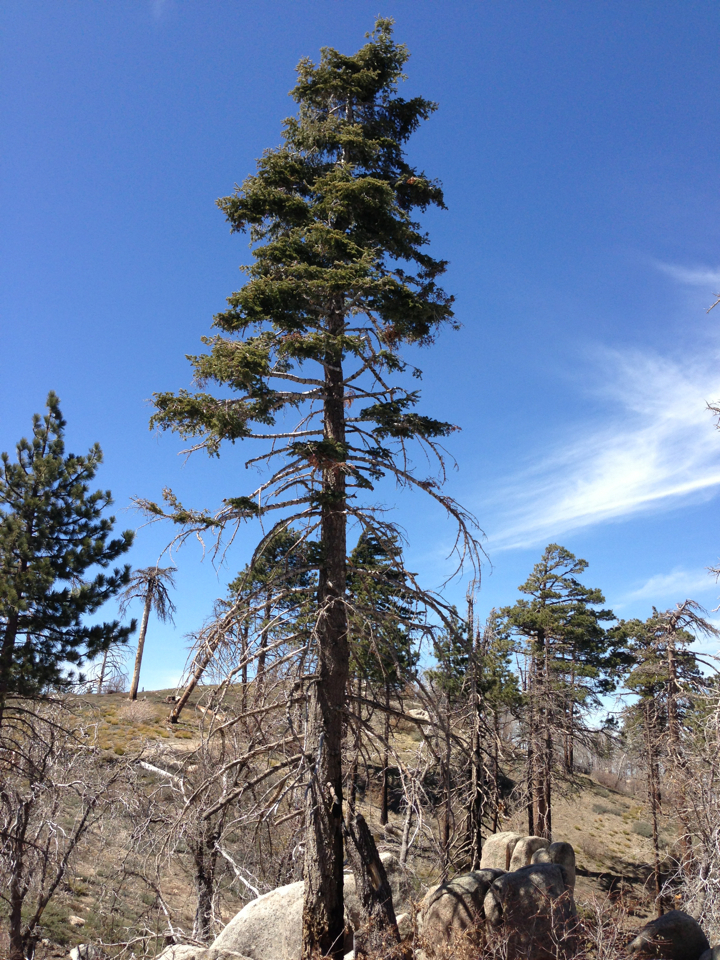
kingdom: Plantae
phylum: Tracheophyta
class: Pinopsida
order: Pinales
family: Pinaceae
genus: Abies
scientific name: Abies concolor
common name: Colorado fir
